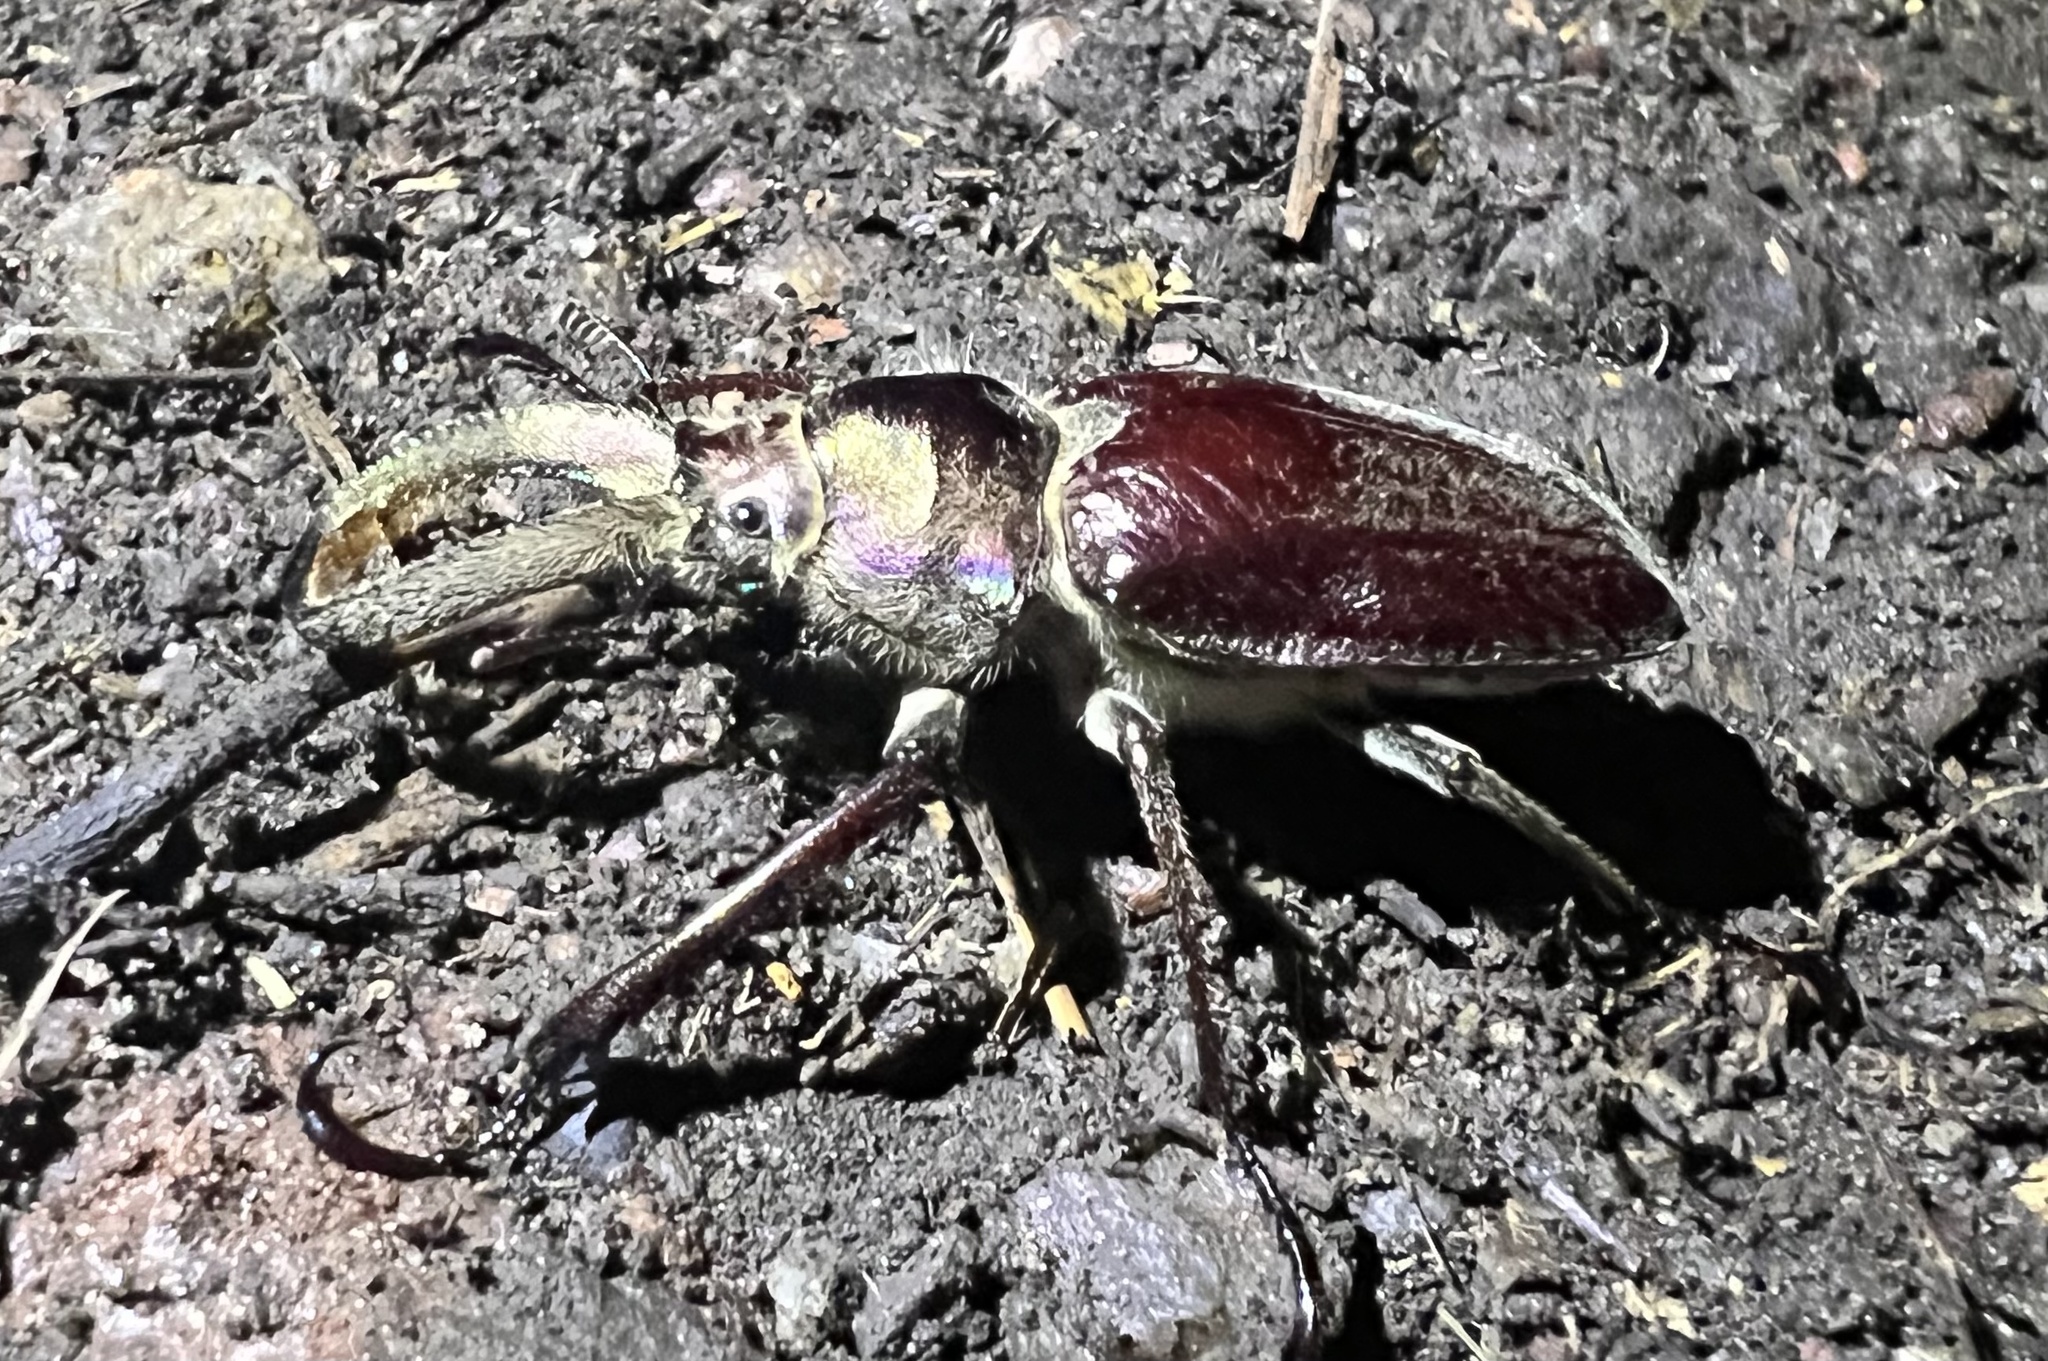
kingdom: Animalia
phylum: Arthropoda
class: Insecta
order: Coleoptera
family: Lucanidae
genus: Sphaenognathus
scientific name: Sphaenognathus bellicosus
